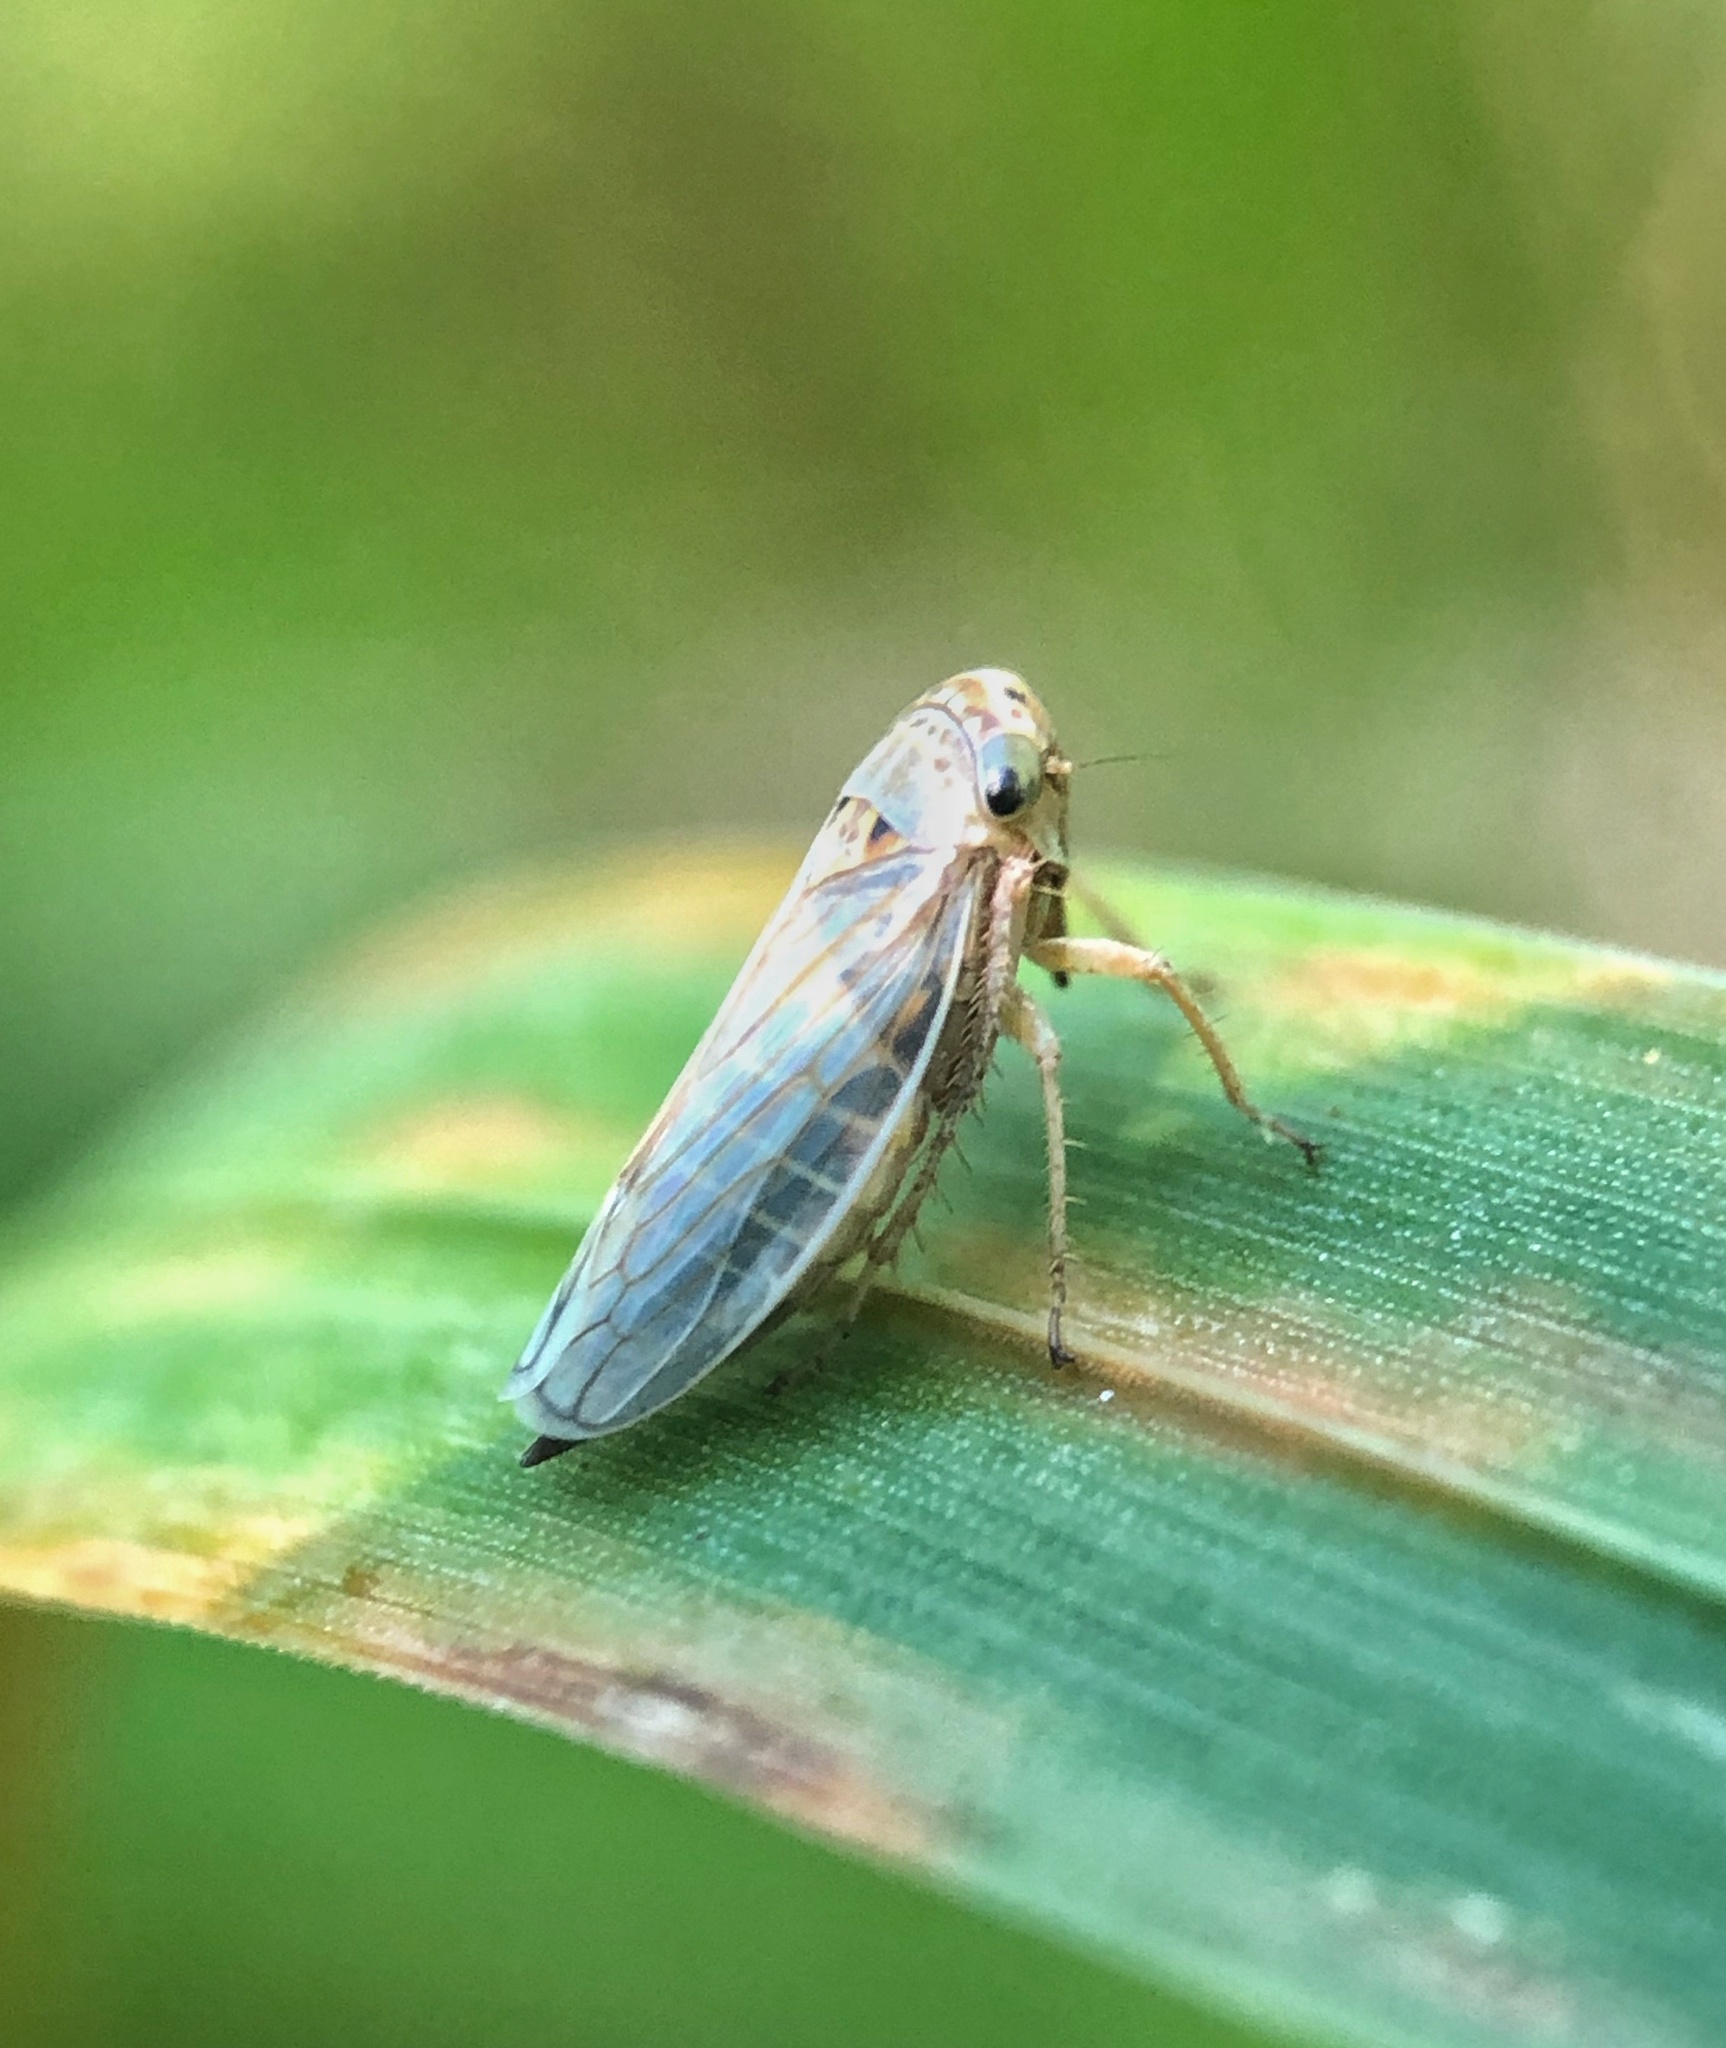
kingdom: Animalia
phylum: Arthropoda
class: Insecta
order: Hemiptera
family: Cicadellidae
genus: Exitianus
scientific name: Exitianus exitiosus
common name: Gray lawn leafhopper
